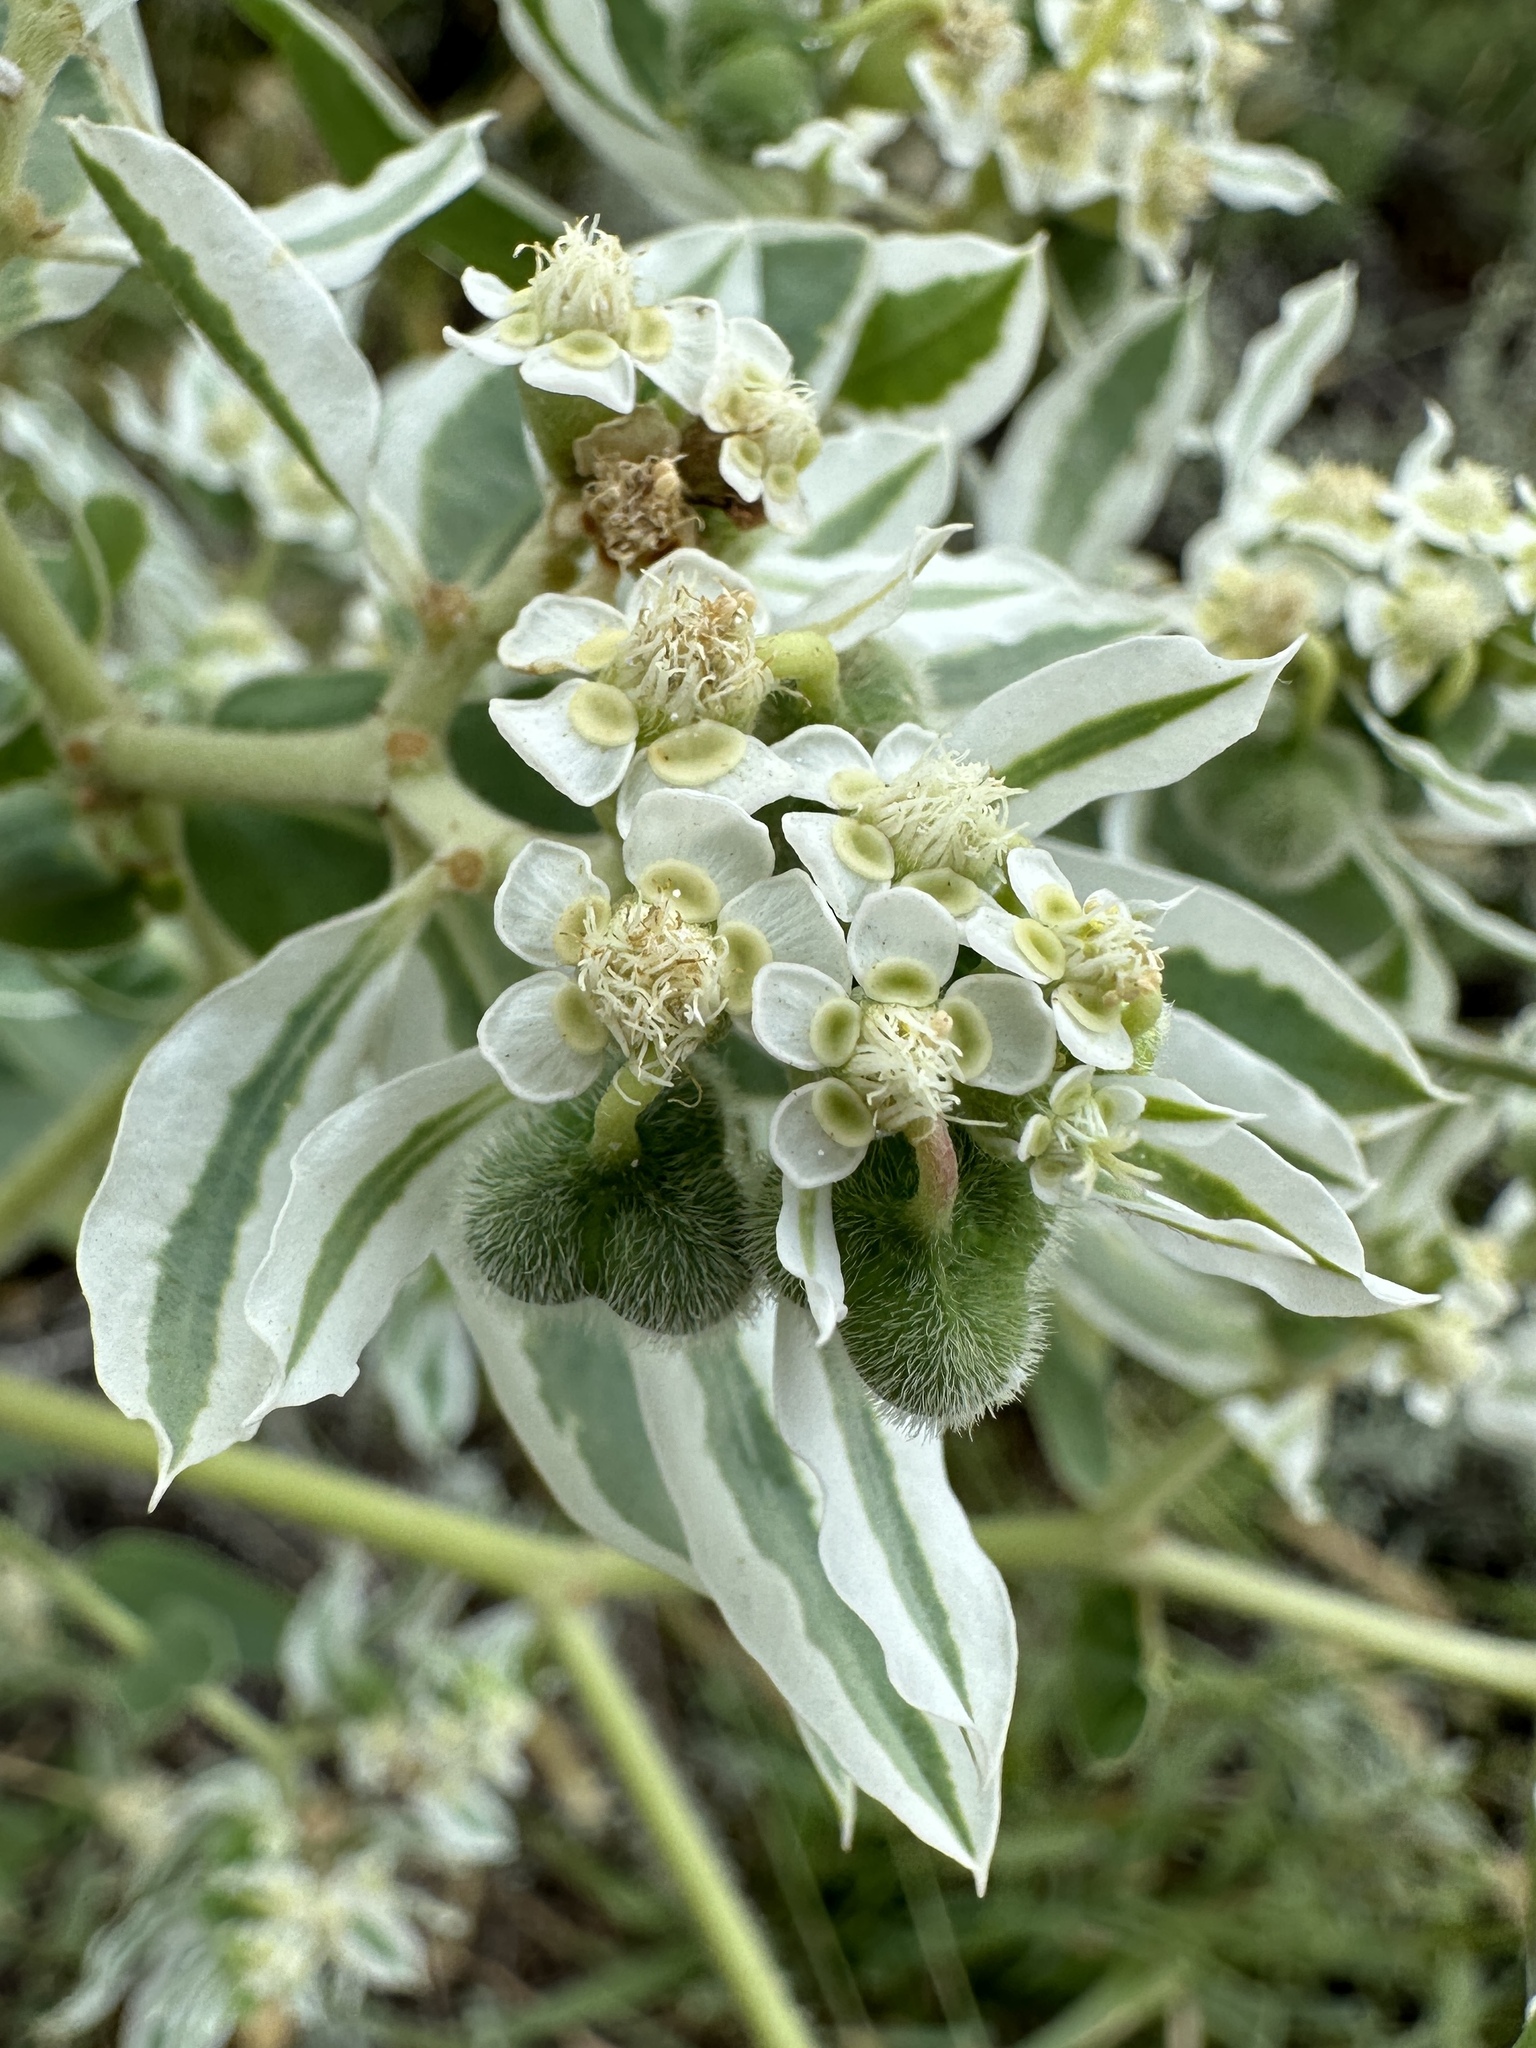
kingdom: Plantae
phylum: Tracheophyta
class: Magnoliopsida
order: Malpighiales
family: Euphorbiaceae
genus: Euphorbia
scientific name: Euphorbia marginata
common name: Ghostweed
